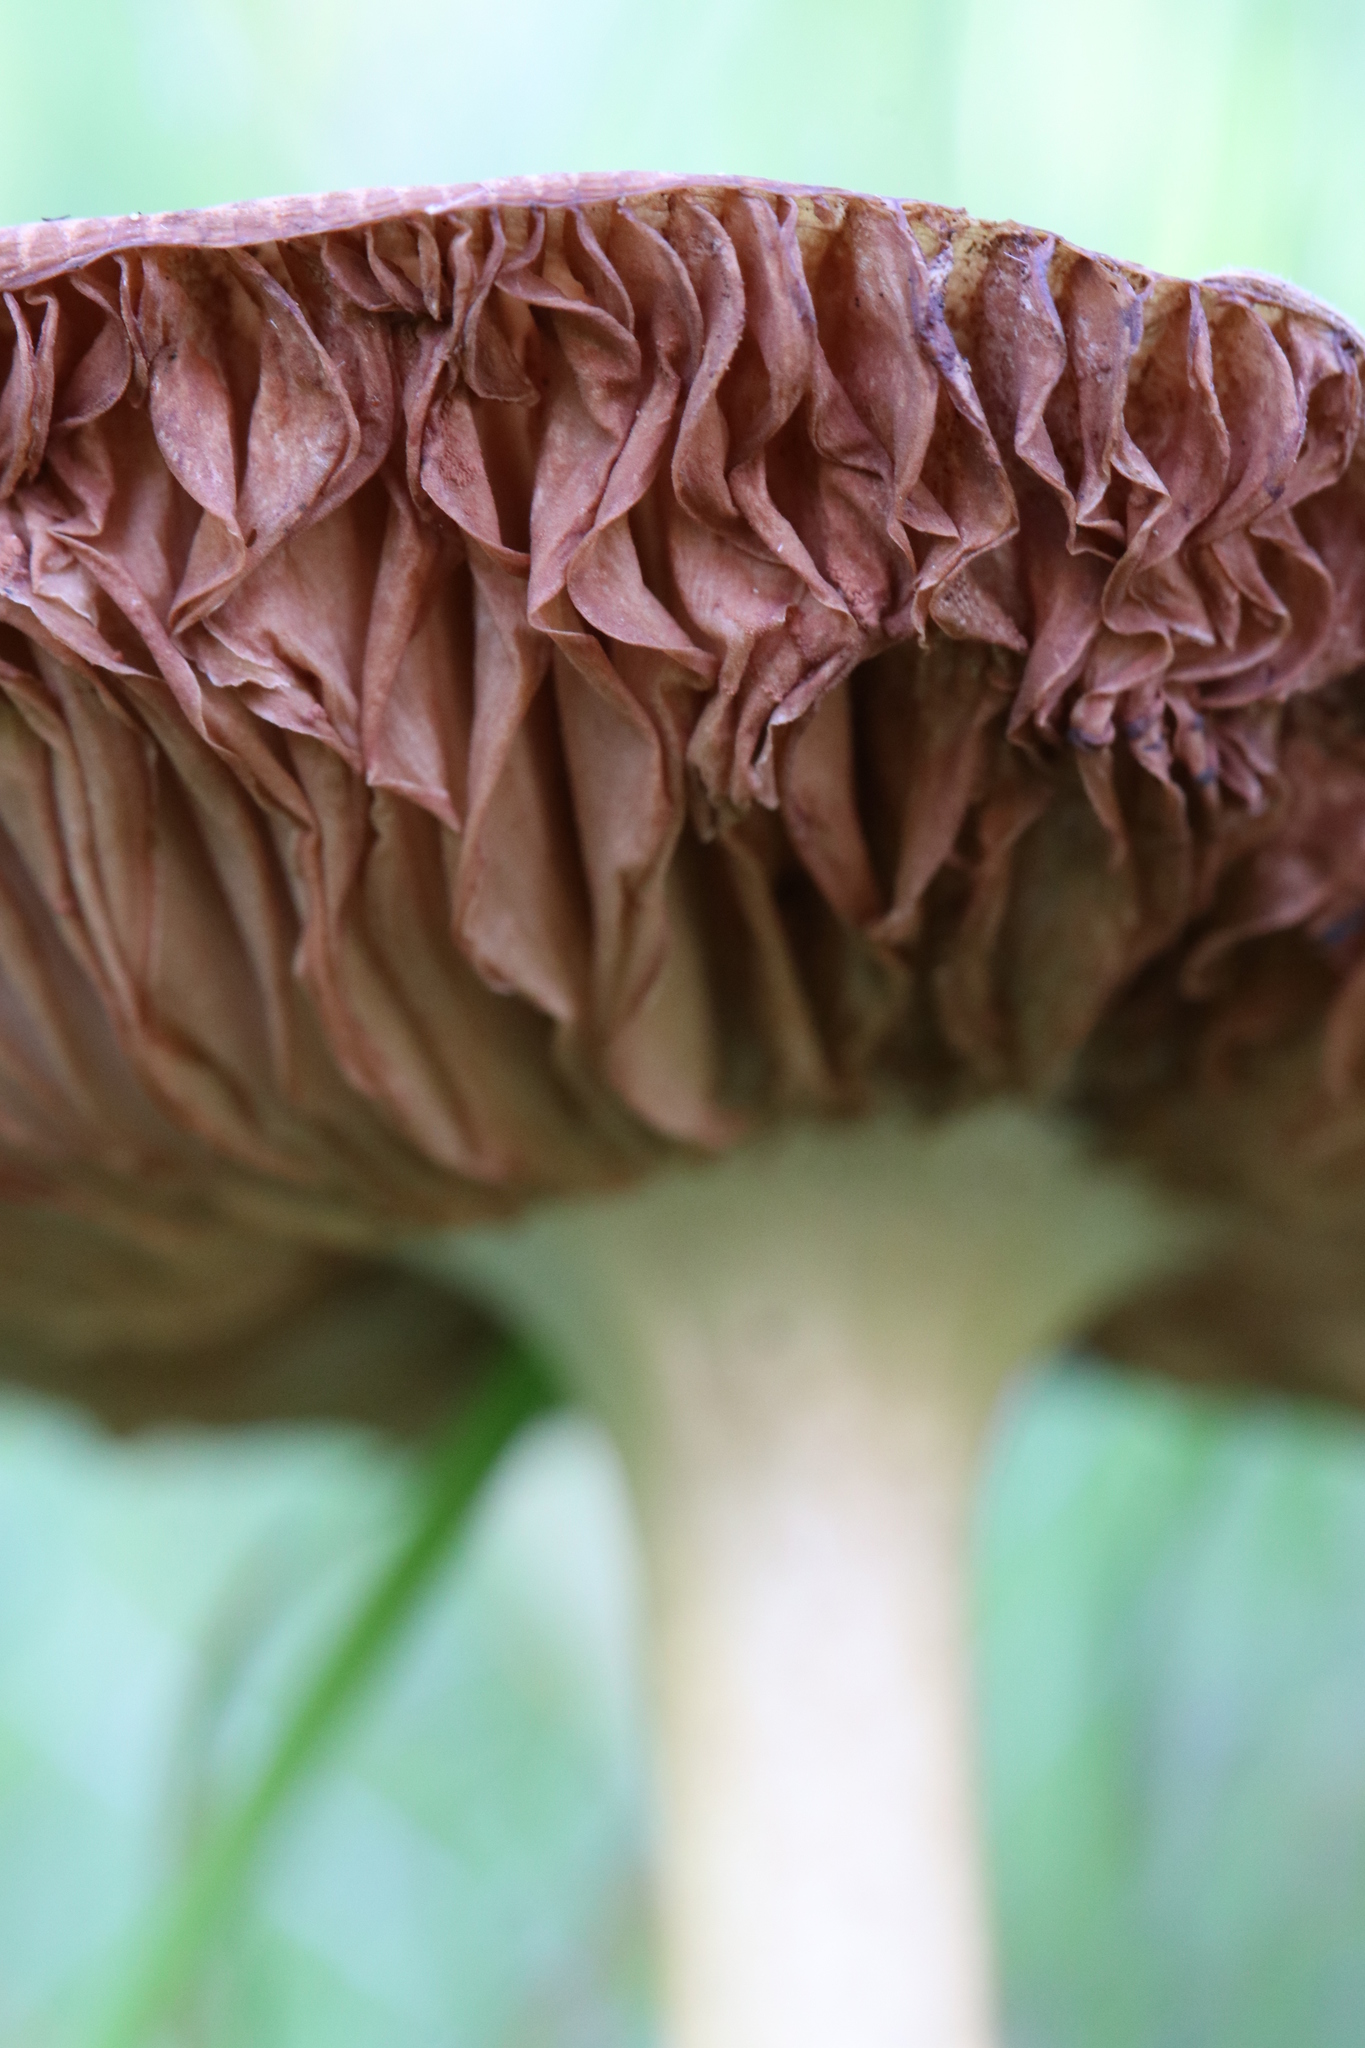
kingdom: Fungi
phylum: Basidiomycota
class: Agaricomycetes
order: Agaricales
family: Pluteaceae
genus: Volvopluteus
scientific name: Volvopluteus gloiocephalus
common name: Stubble rosegill
